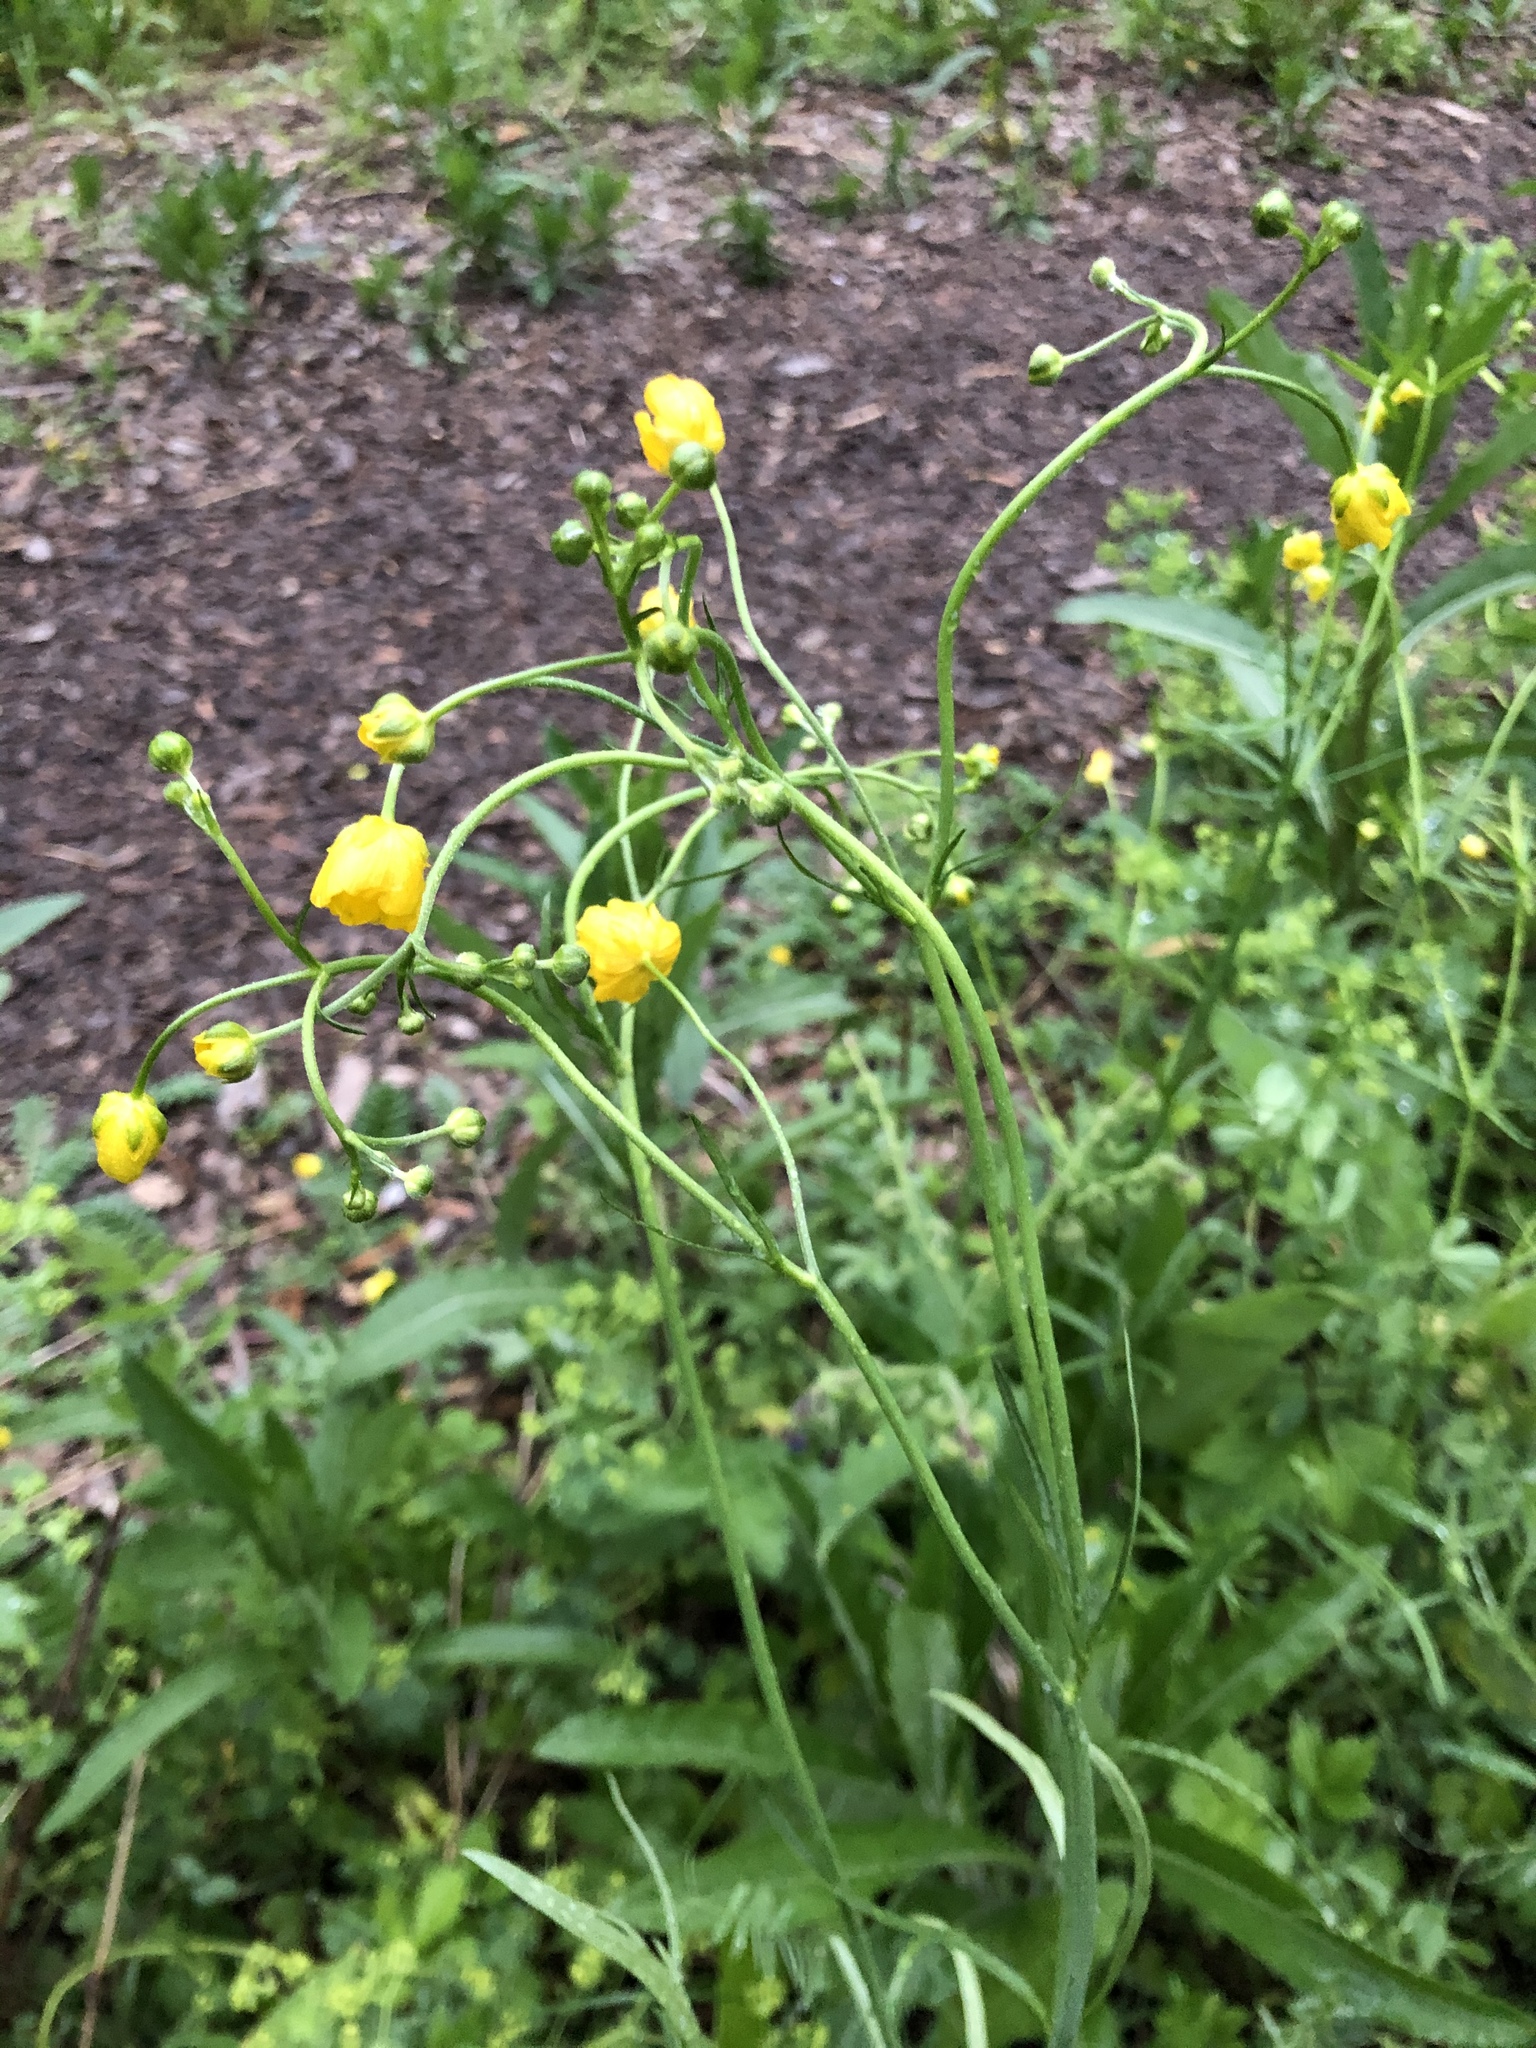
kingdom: Plantae
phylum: Tracheophyta
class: Magnoliopsida
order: Ranunculales
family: Ranunculaceae
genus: Ranunculus
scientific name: Ranunculus acris
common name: Meadow buttercup
